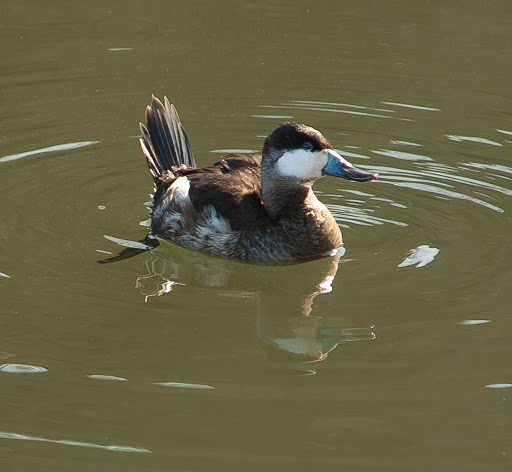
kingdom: Animalia
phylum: Chordata
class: Aves
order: Anseriformes
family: Anatidae
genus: Oxyura
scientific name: Oxyura jamaicensis
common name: Ruddy duck
